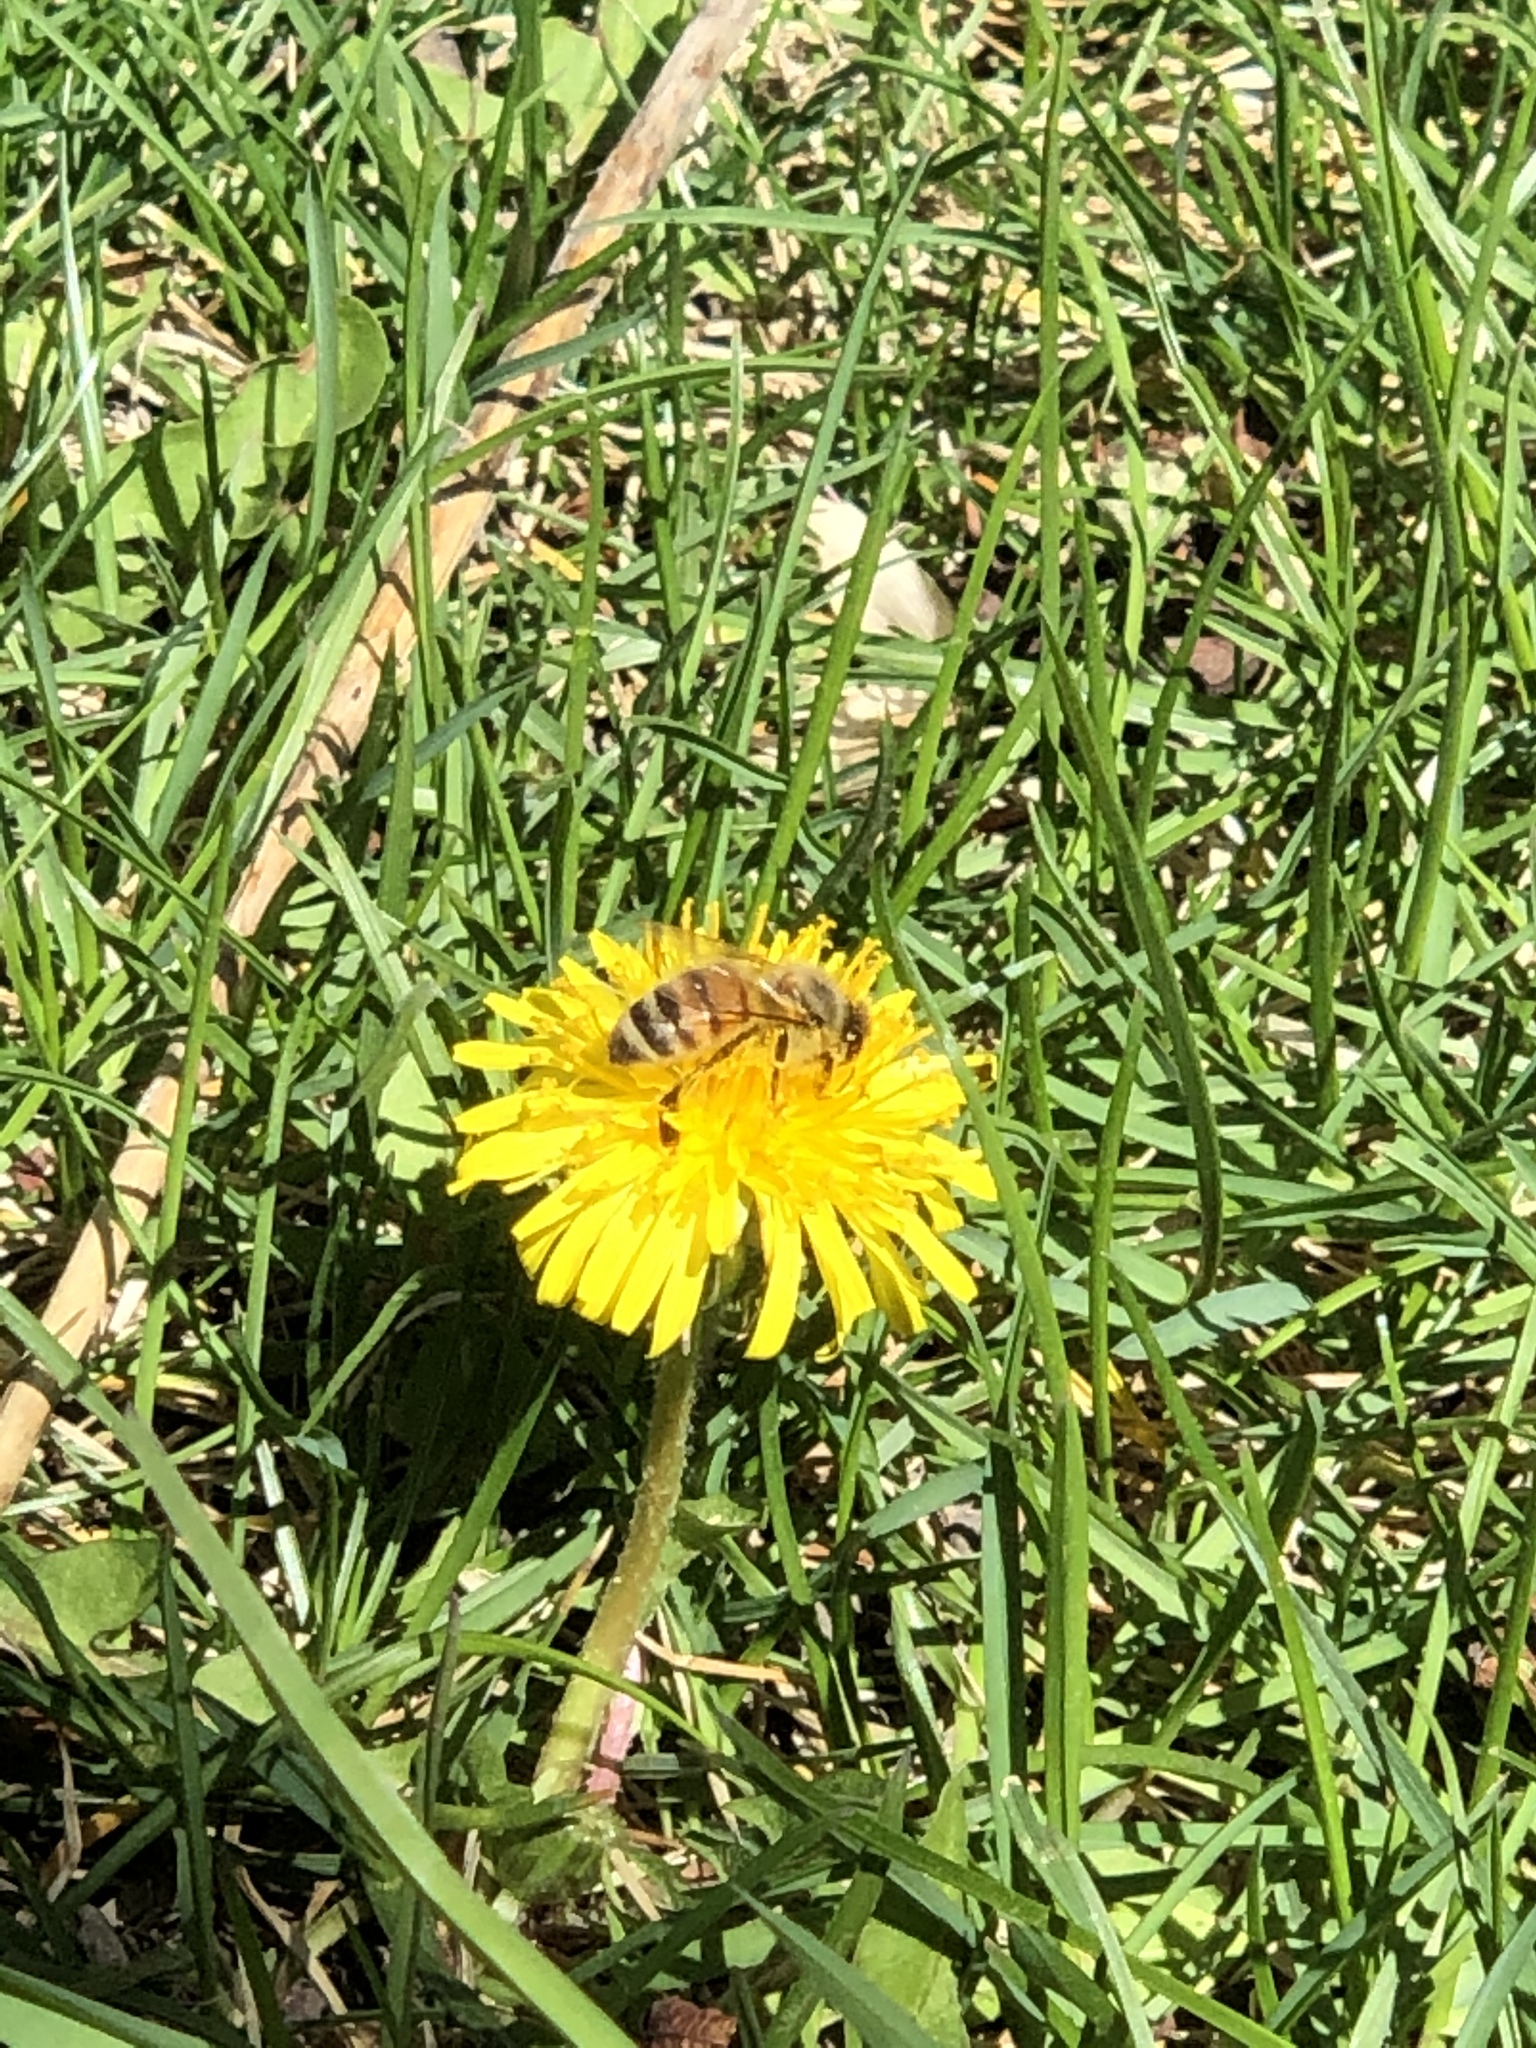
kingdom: Animalia
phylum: Arthropoda
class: Insecta
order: Hymenoptera
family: Apidae
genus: Apis
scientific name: Apis mellifera
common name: Honey bee
